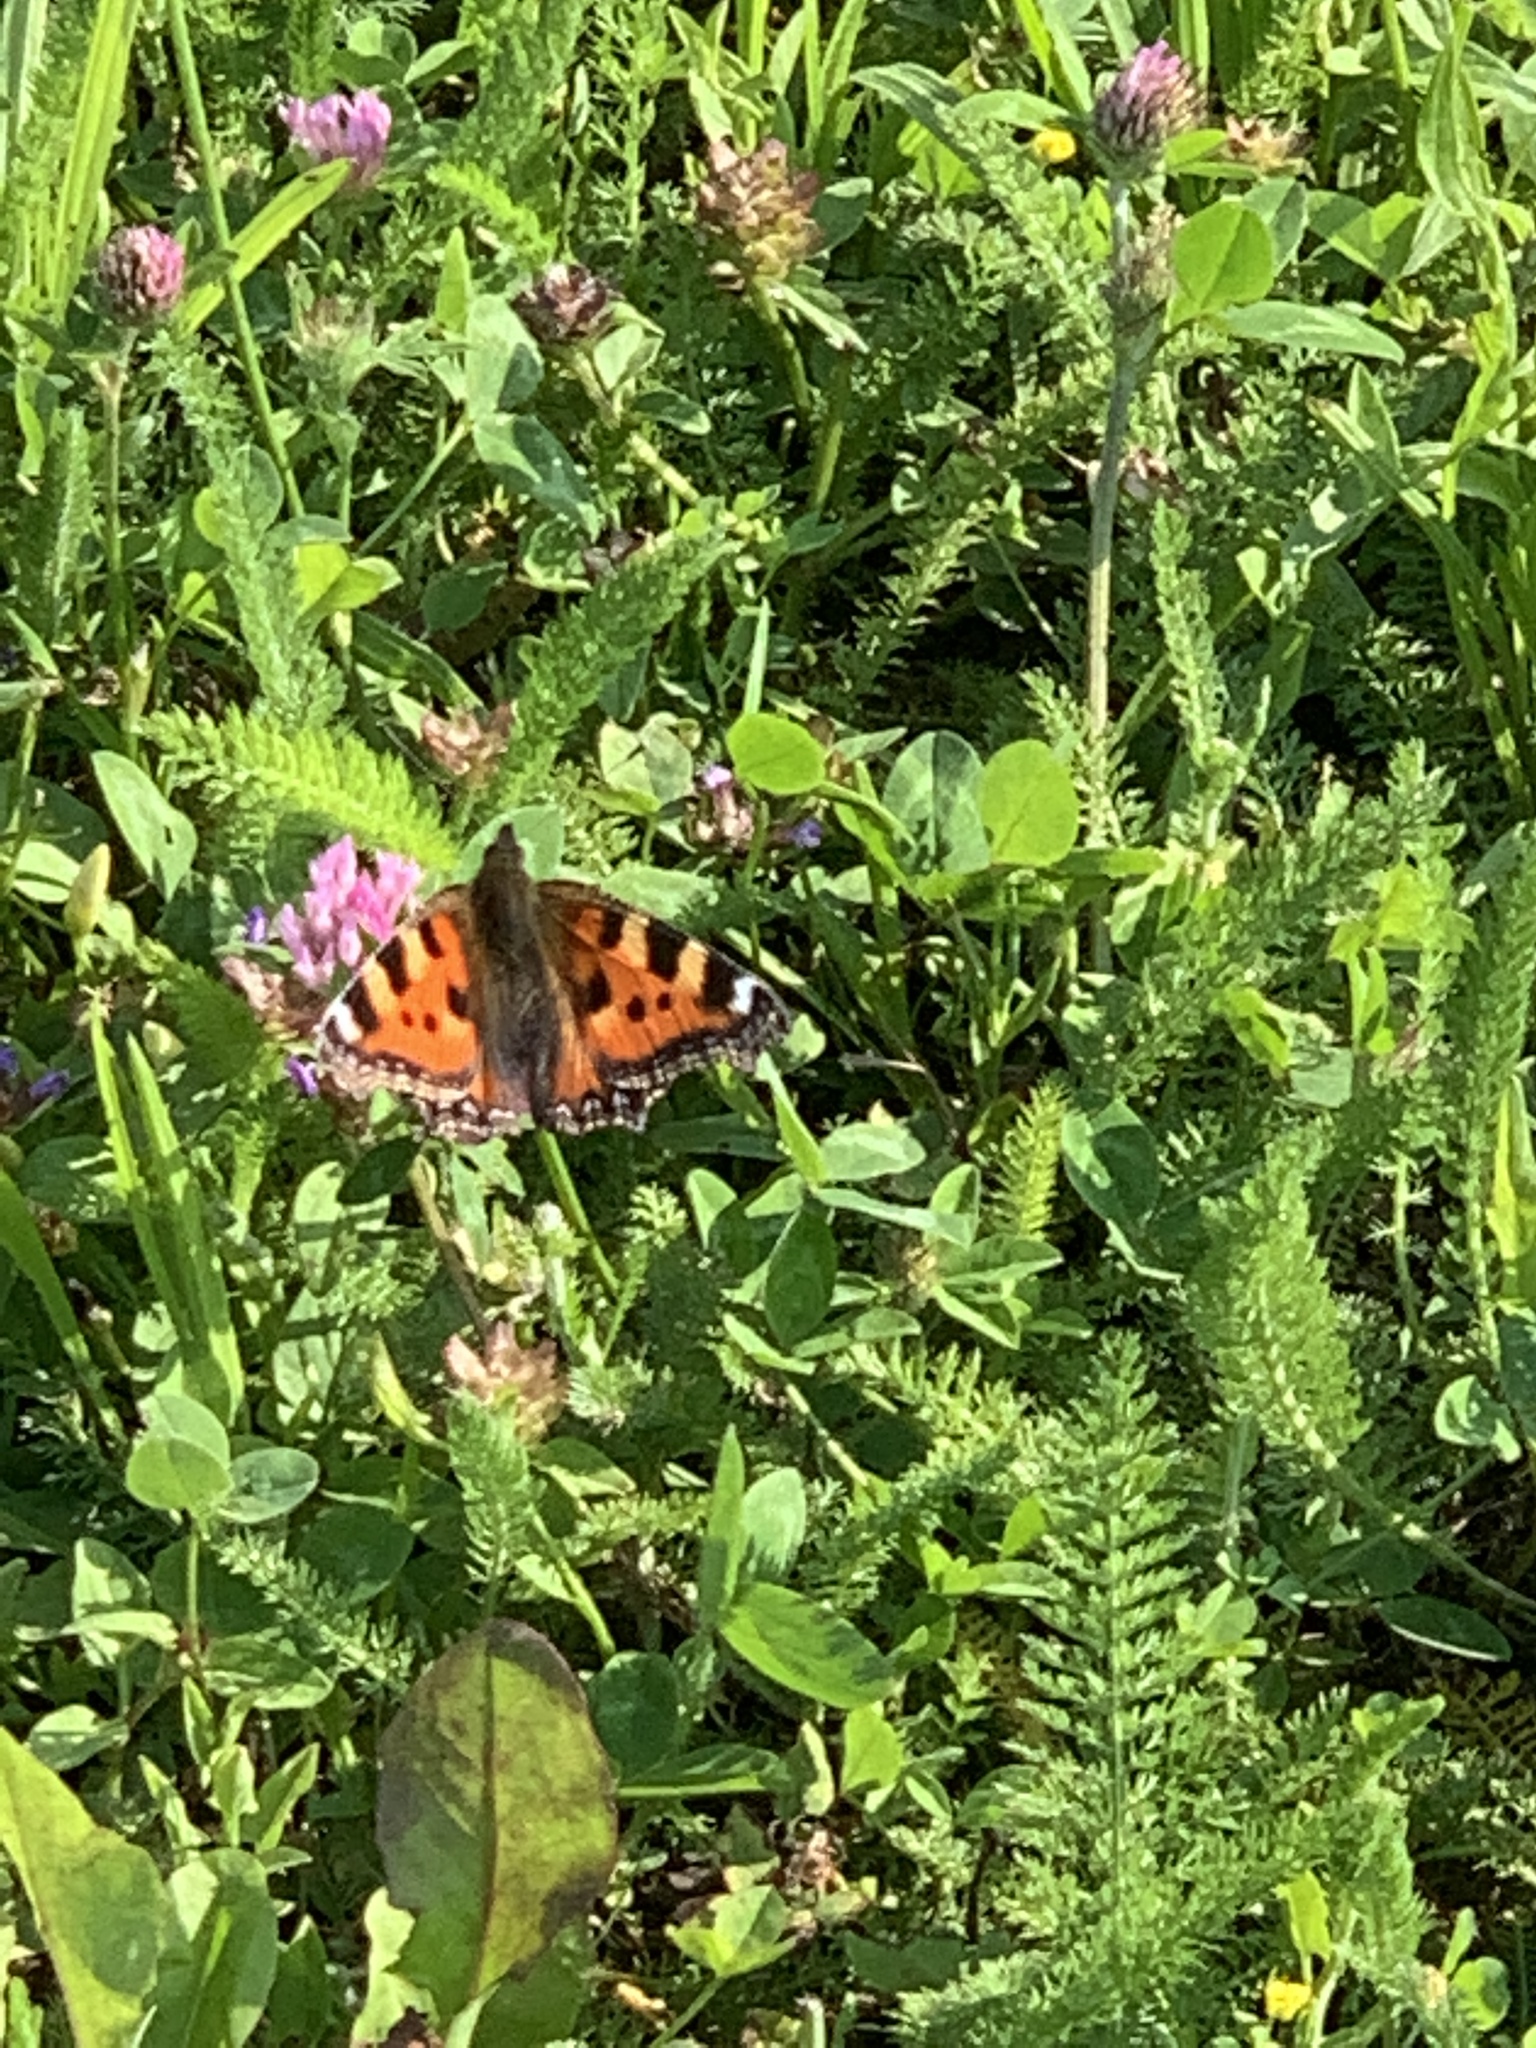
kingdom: Animalia
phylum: Arthropoda
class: Insecta
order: Lepidoptera
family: Nymphalidae
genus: Aglais
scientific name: Aglais urticae
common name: Small tortoiseshell
